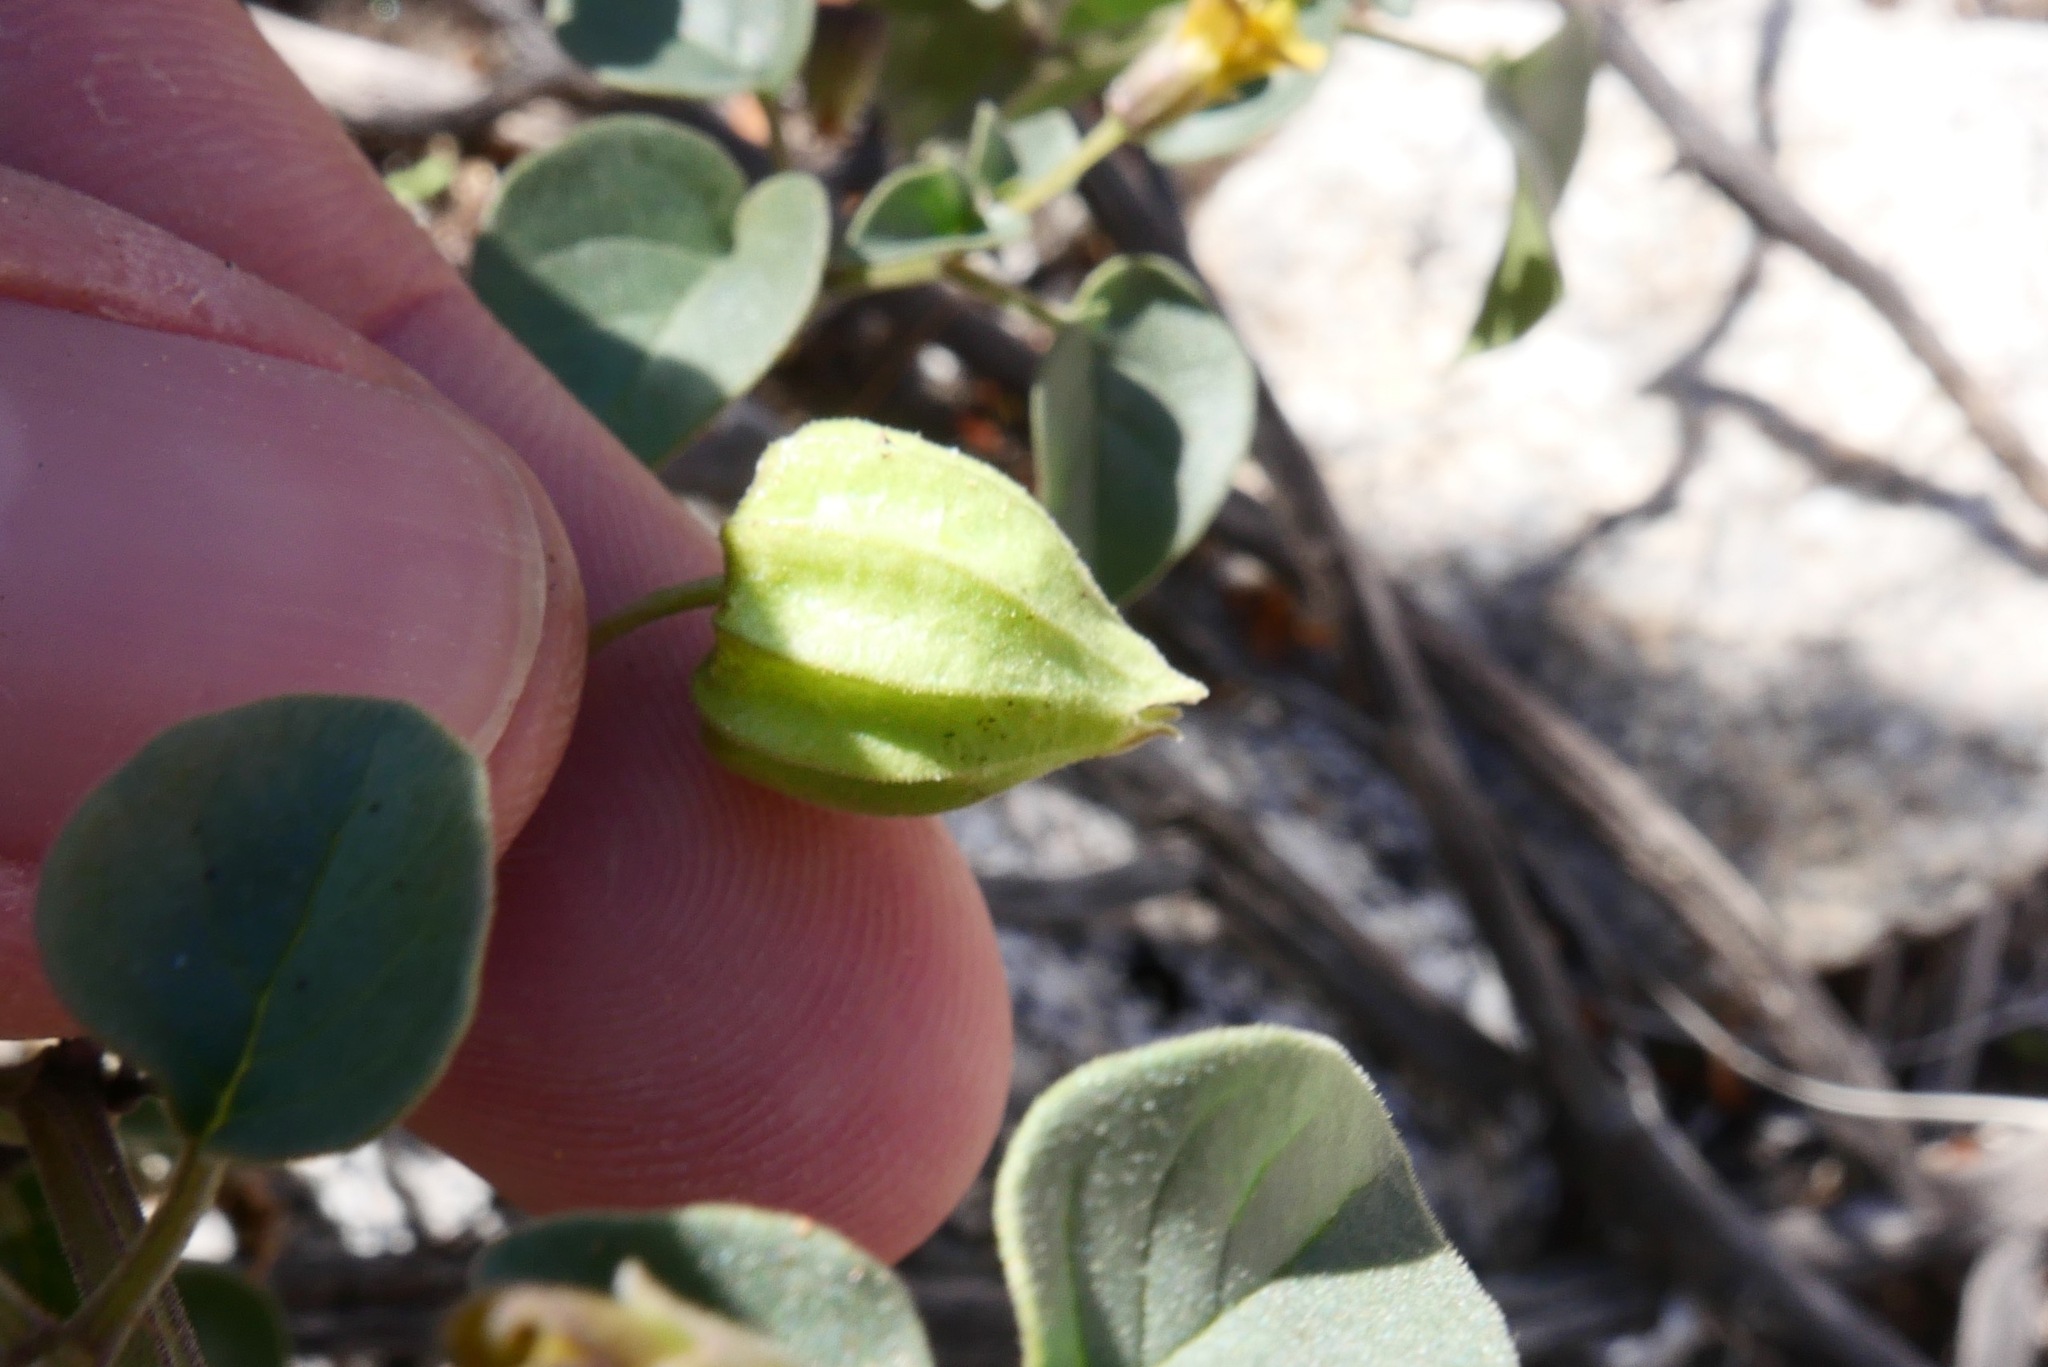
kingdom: Plantae
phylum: Tracheophyta
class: Magnoliopsida
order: Solanales
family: Solanaceae
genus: Physalis
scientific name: Physalis crassifolia
